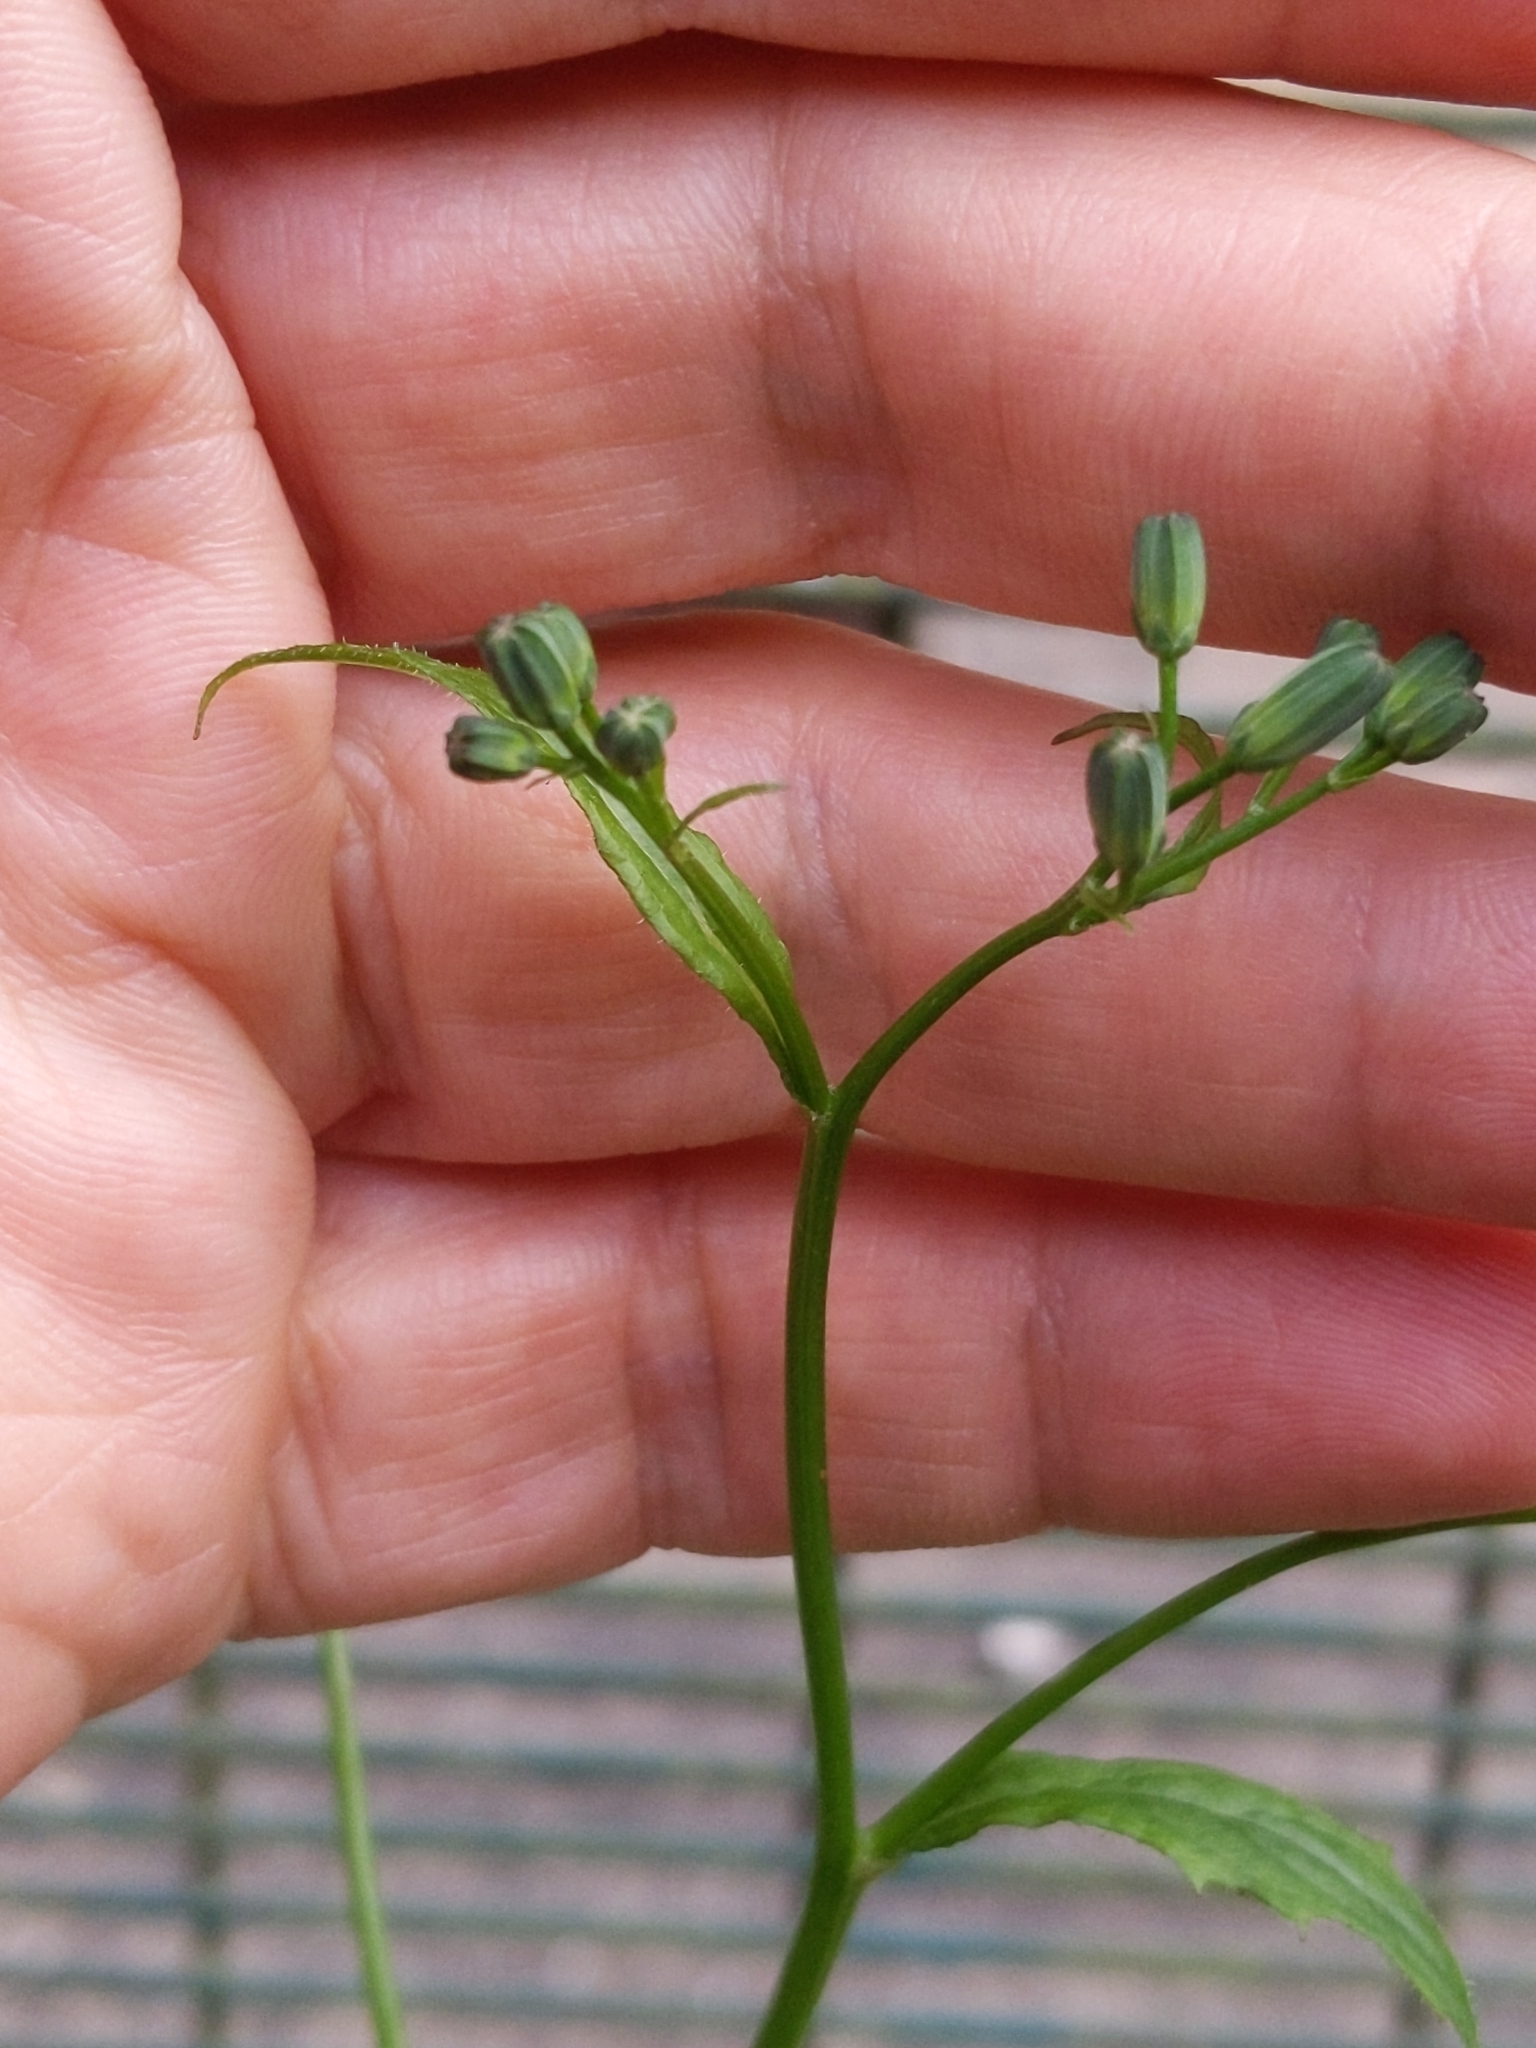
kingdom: Plantae
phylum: Tracheophyta
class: Magnoliopsida
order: Asterales
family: Asteraceae
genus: Lapsana
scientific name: Lapsana communis
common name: Nipplewort
